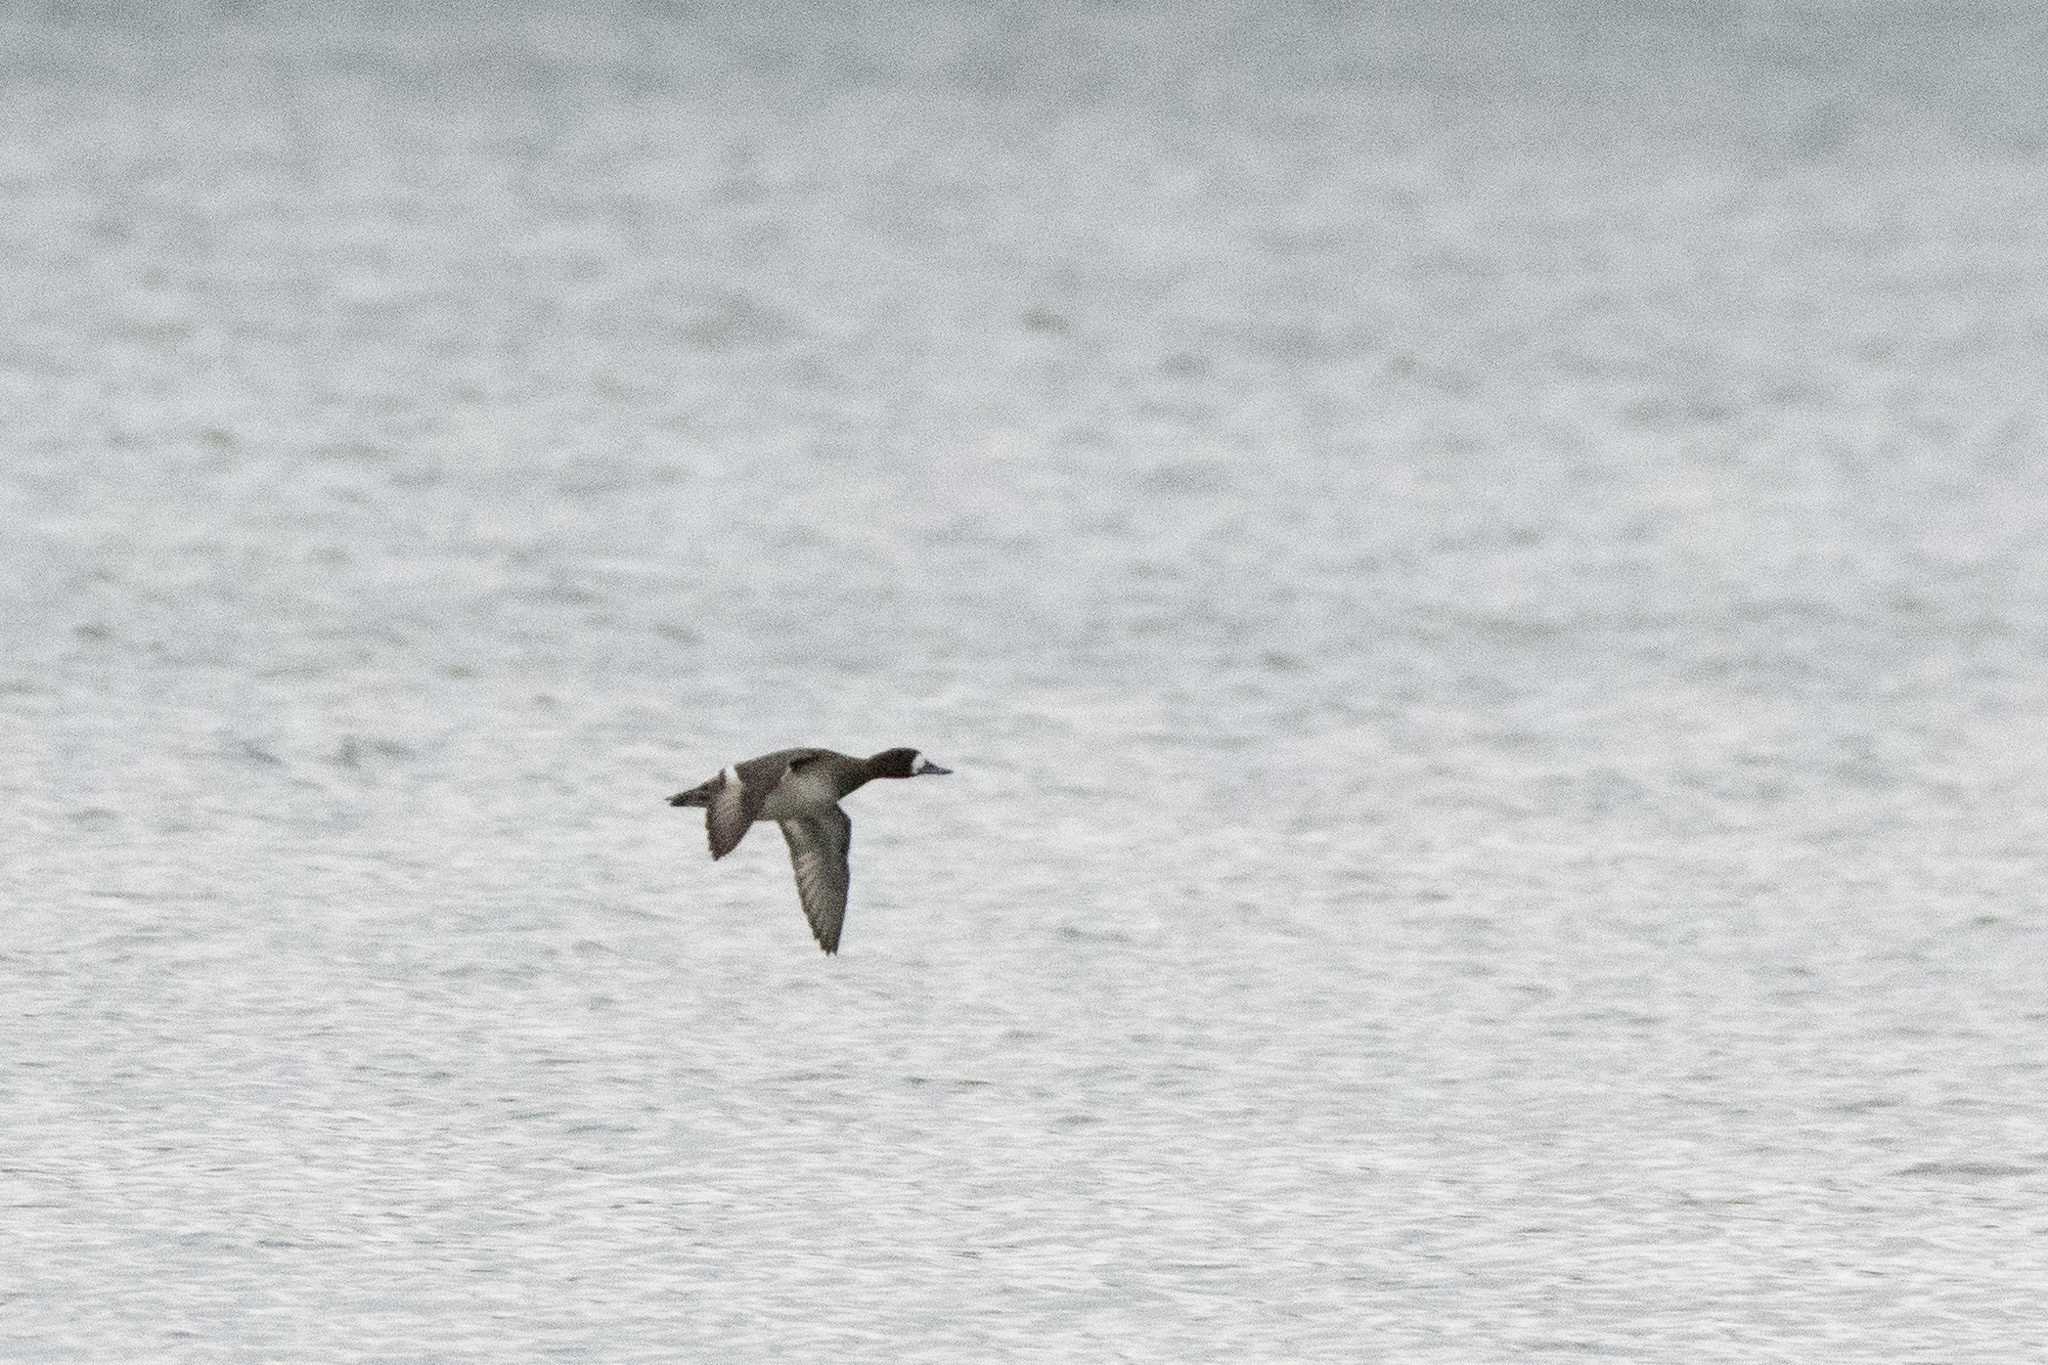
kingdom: Animalia
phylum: Chordata
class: Aves
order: Anseriformes
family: Anatidae
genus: Aythya
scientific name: Aythya affinis
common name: Lesser scaup
